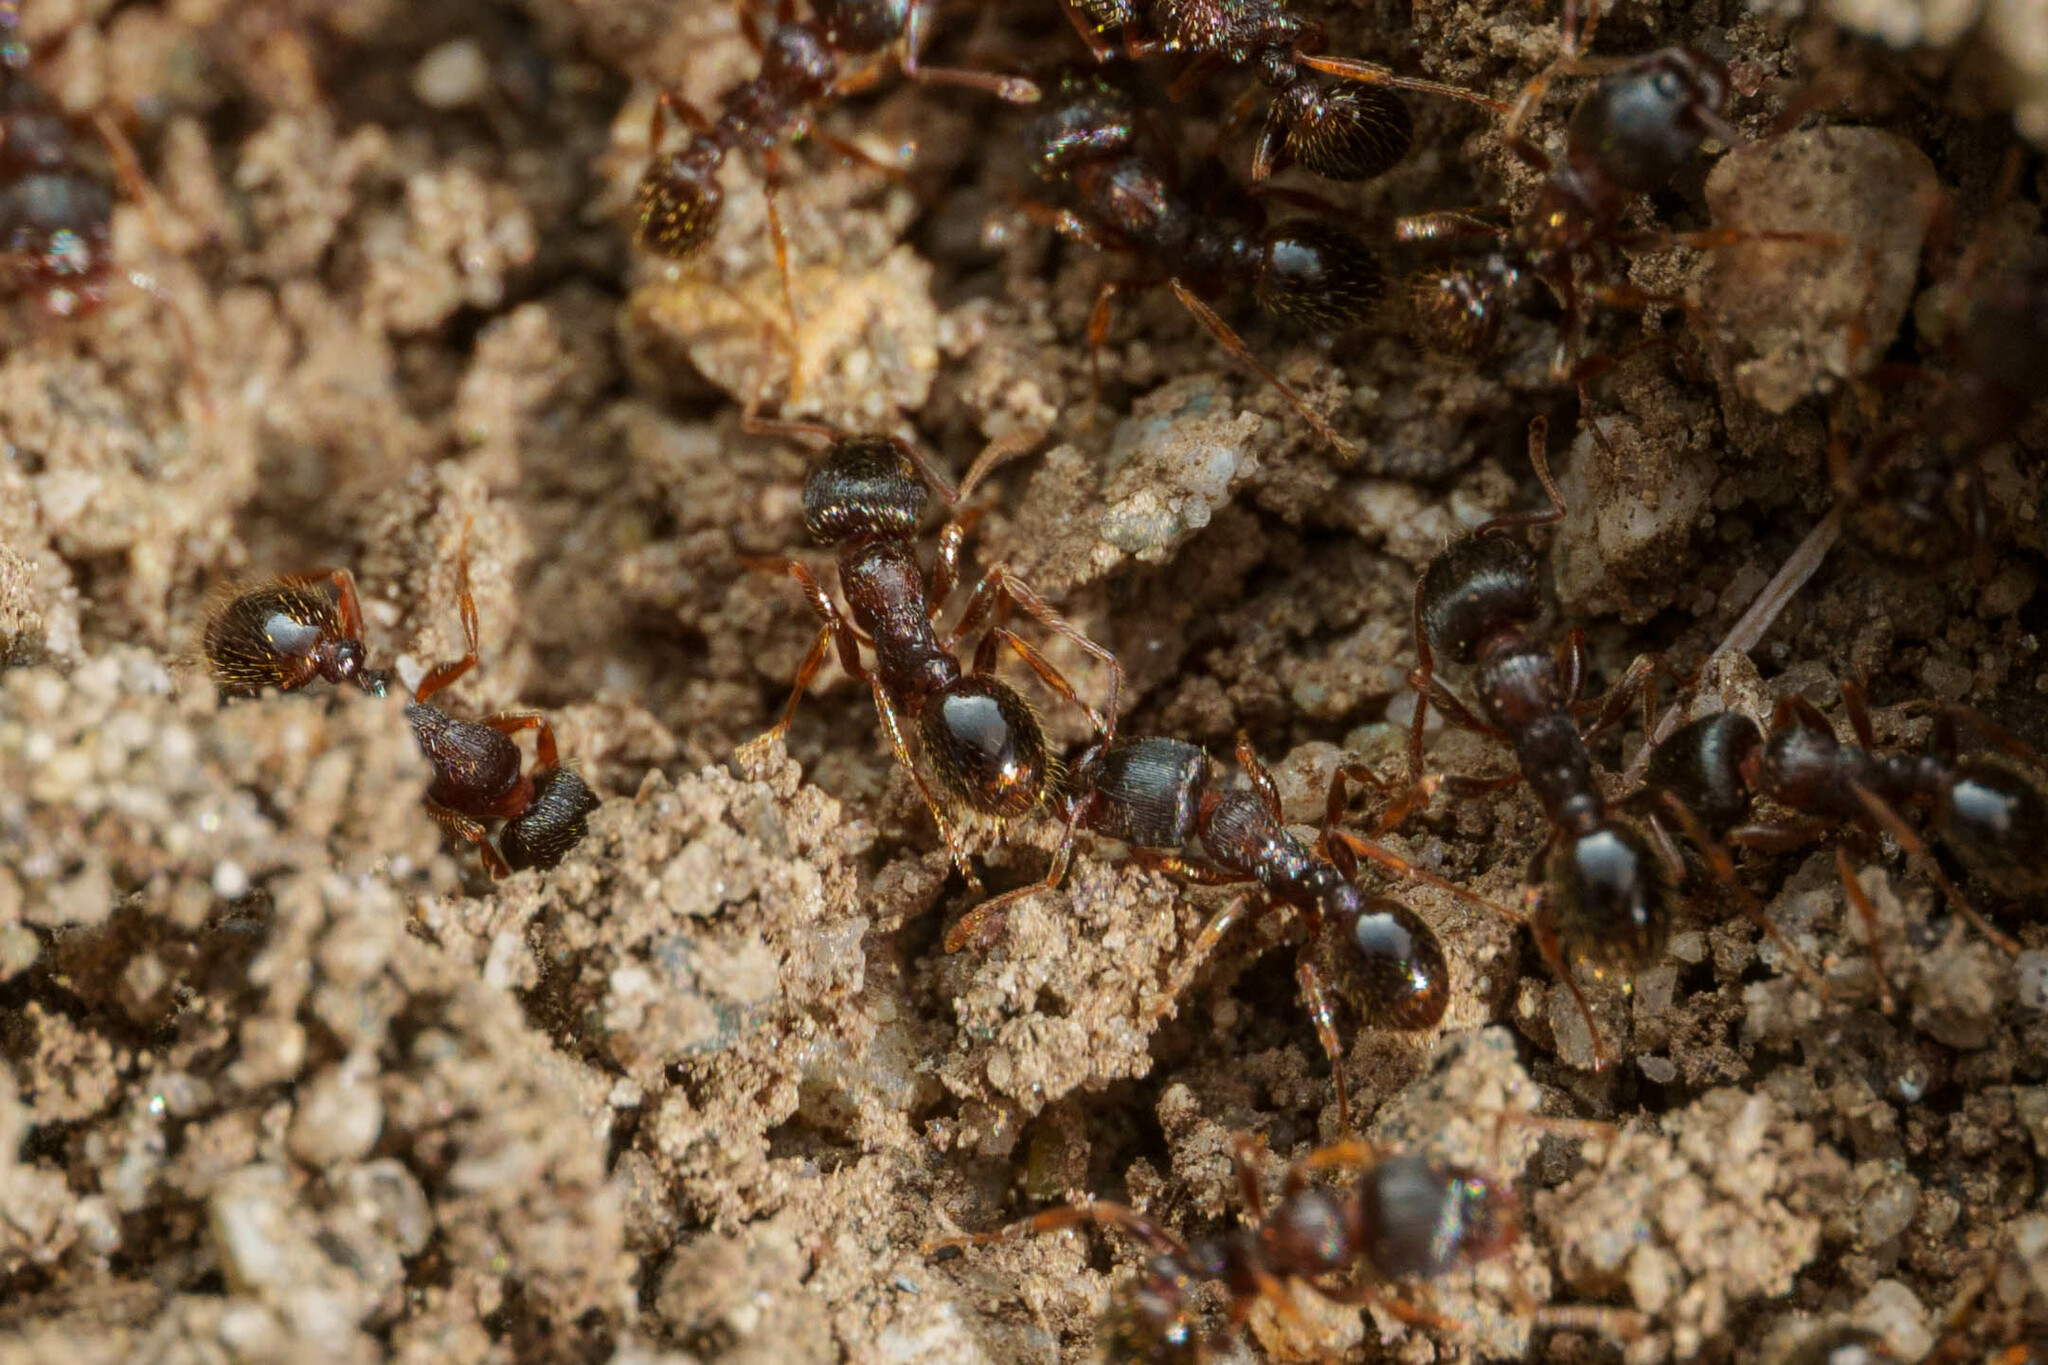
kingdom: Animalia
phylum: Arthropoda
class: Insecta
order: Hymenoptera
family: Formicidae
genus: Tetramorium
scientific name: Tetramorium immigrans
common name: Pavement ant
